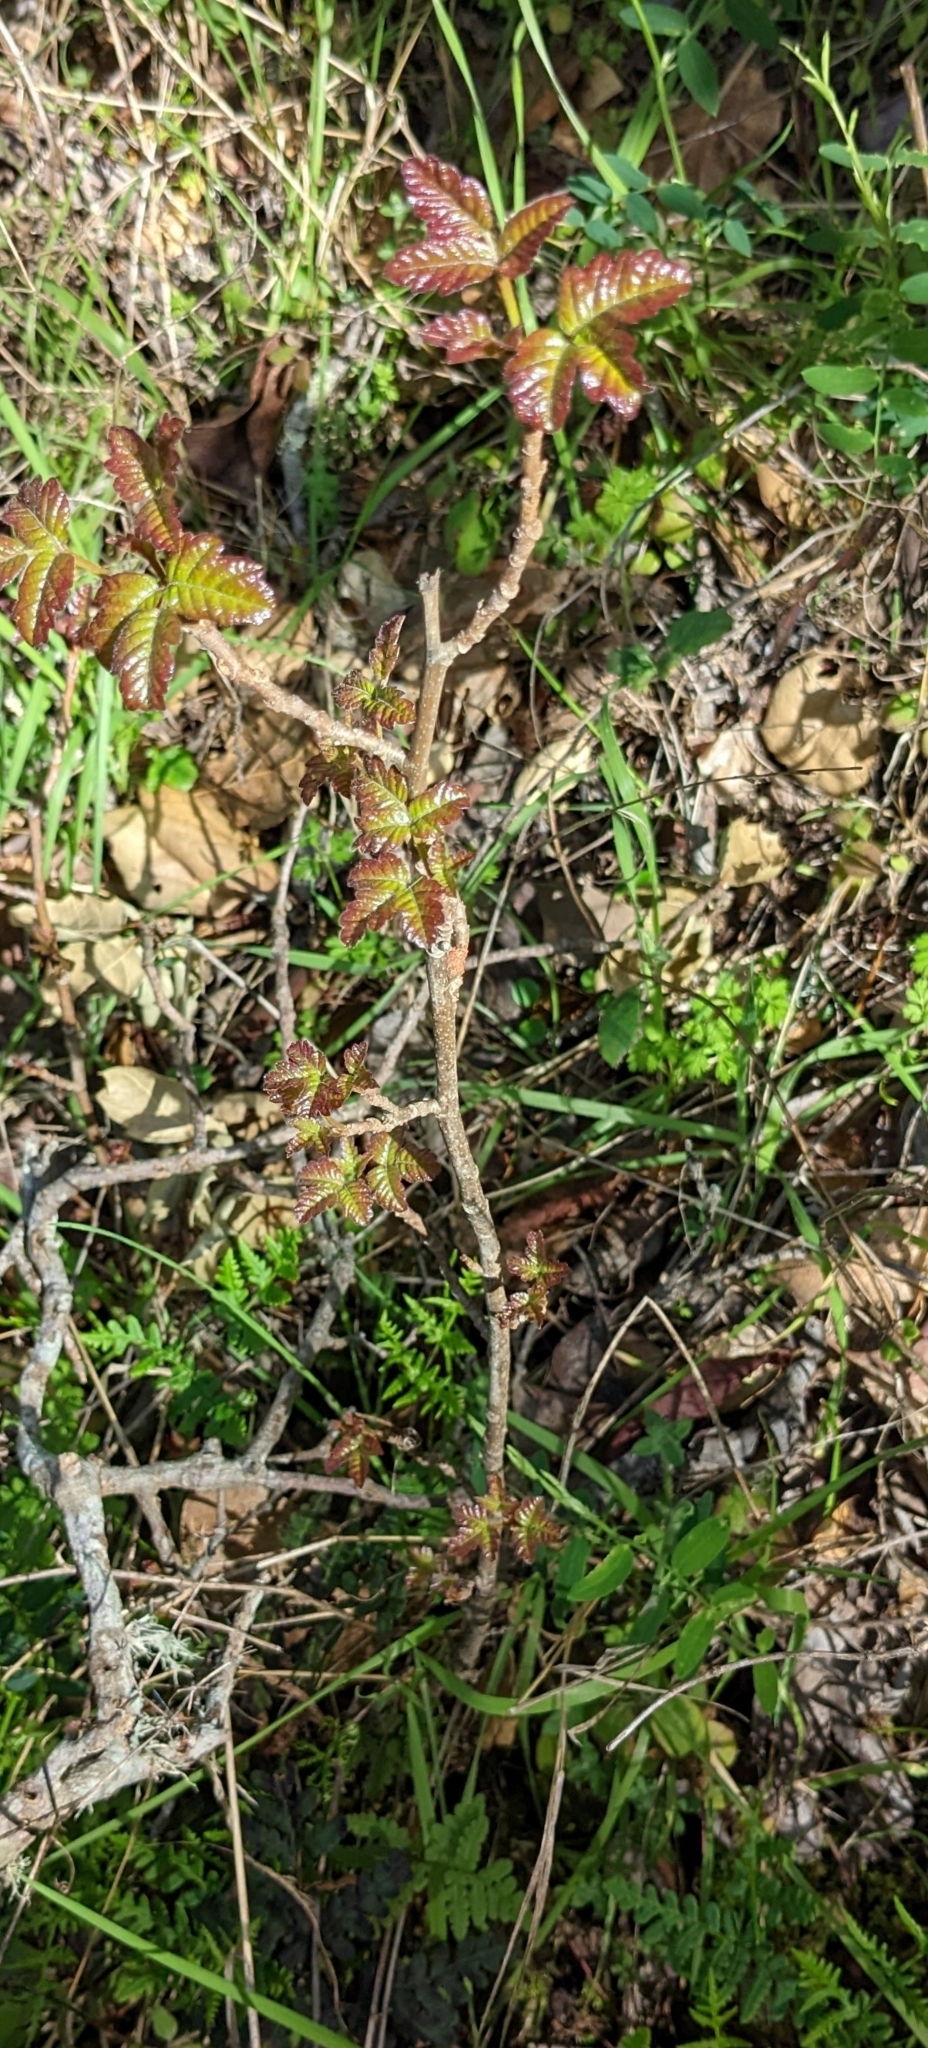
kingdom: Plantae
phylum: Tracheophyta
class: Magnoliopsida
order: Sapindales
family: Anacardiaceae
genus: Toxicodendron
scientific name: Toxicodendron diversilobum
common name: Pacific poison-oak
